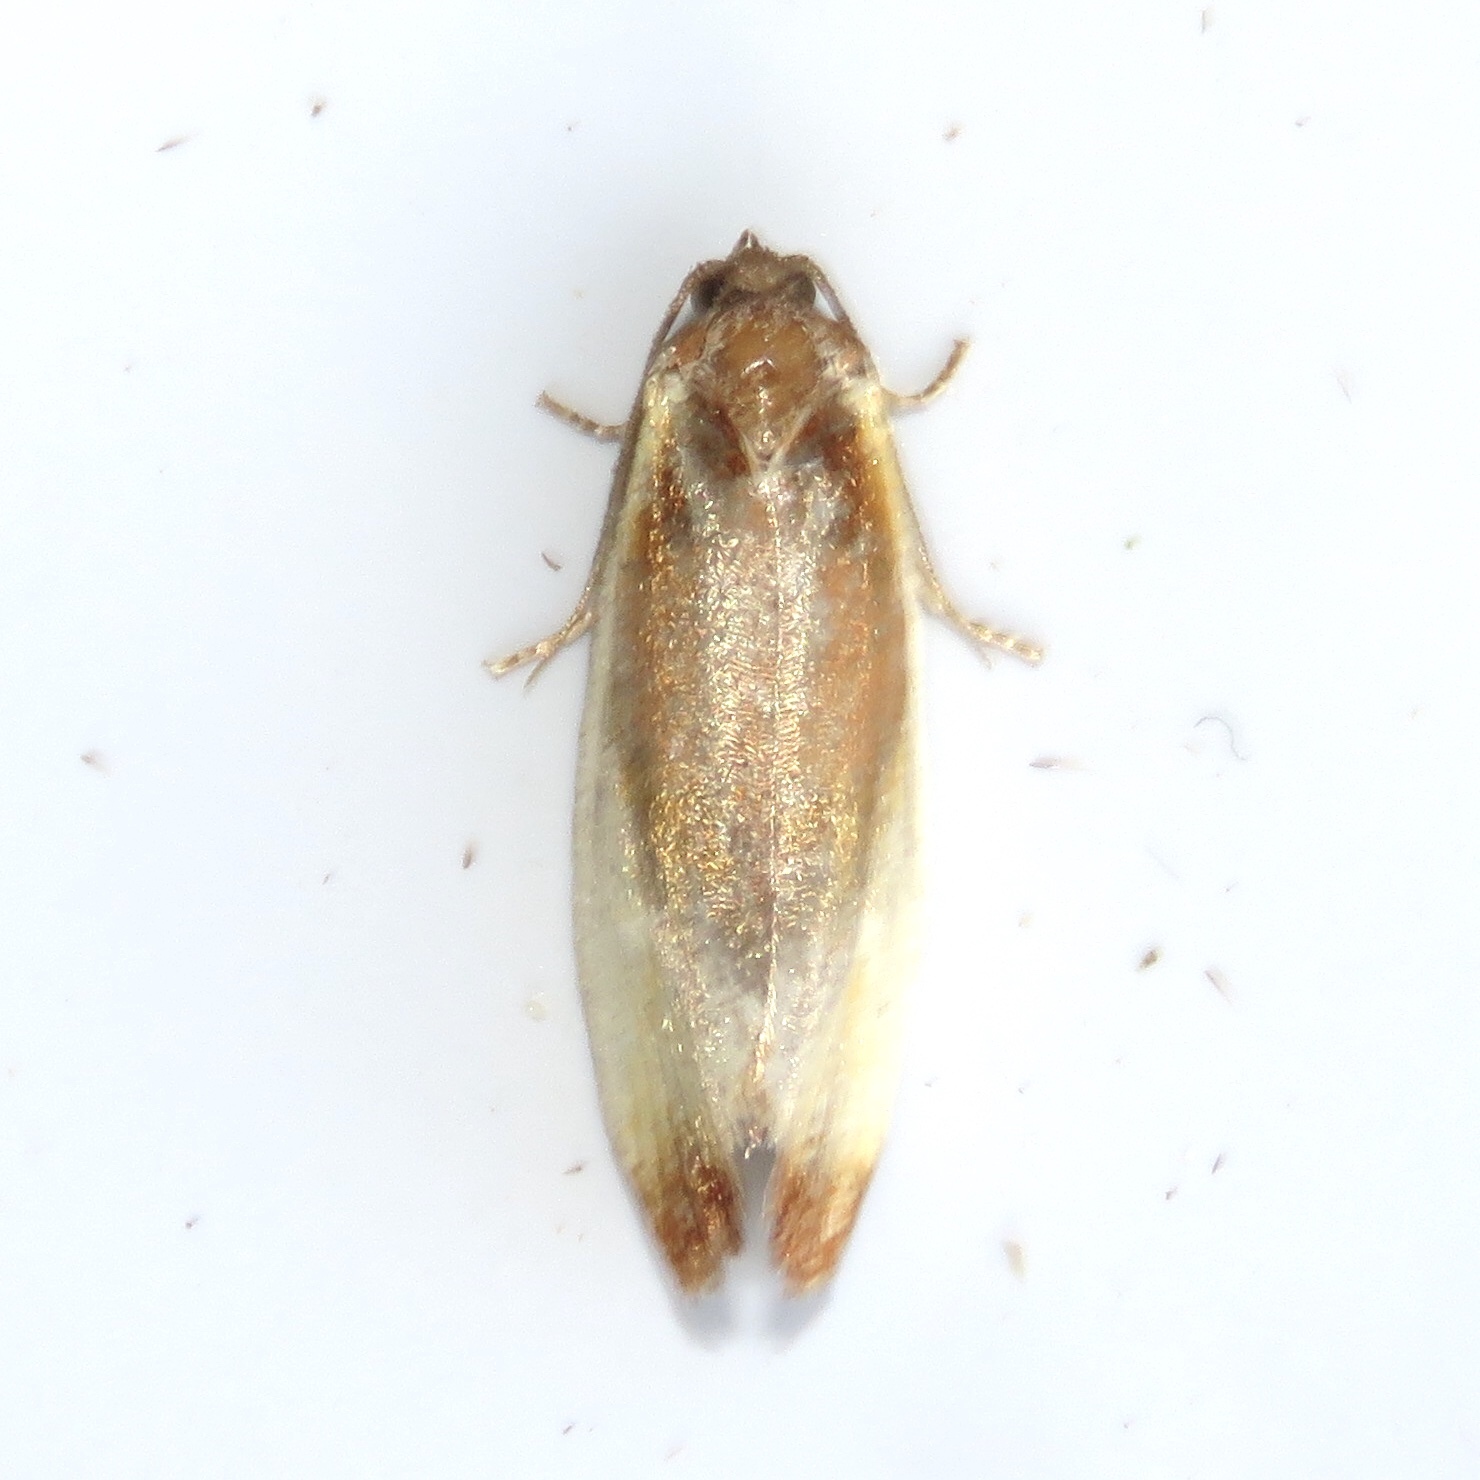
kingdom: Animalia
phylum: Arthropoda
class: Insecta
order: Lepidoptera
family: Tortricidae
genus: Eulia
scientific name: Eulia ministrana
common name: Brassy twist
